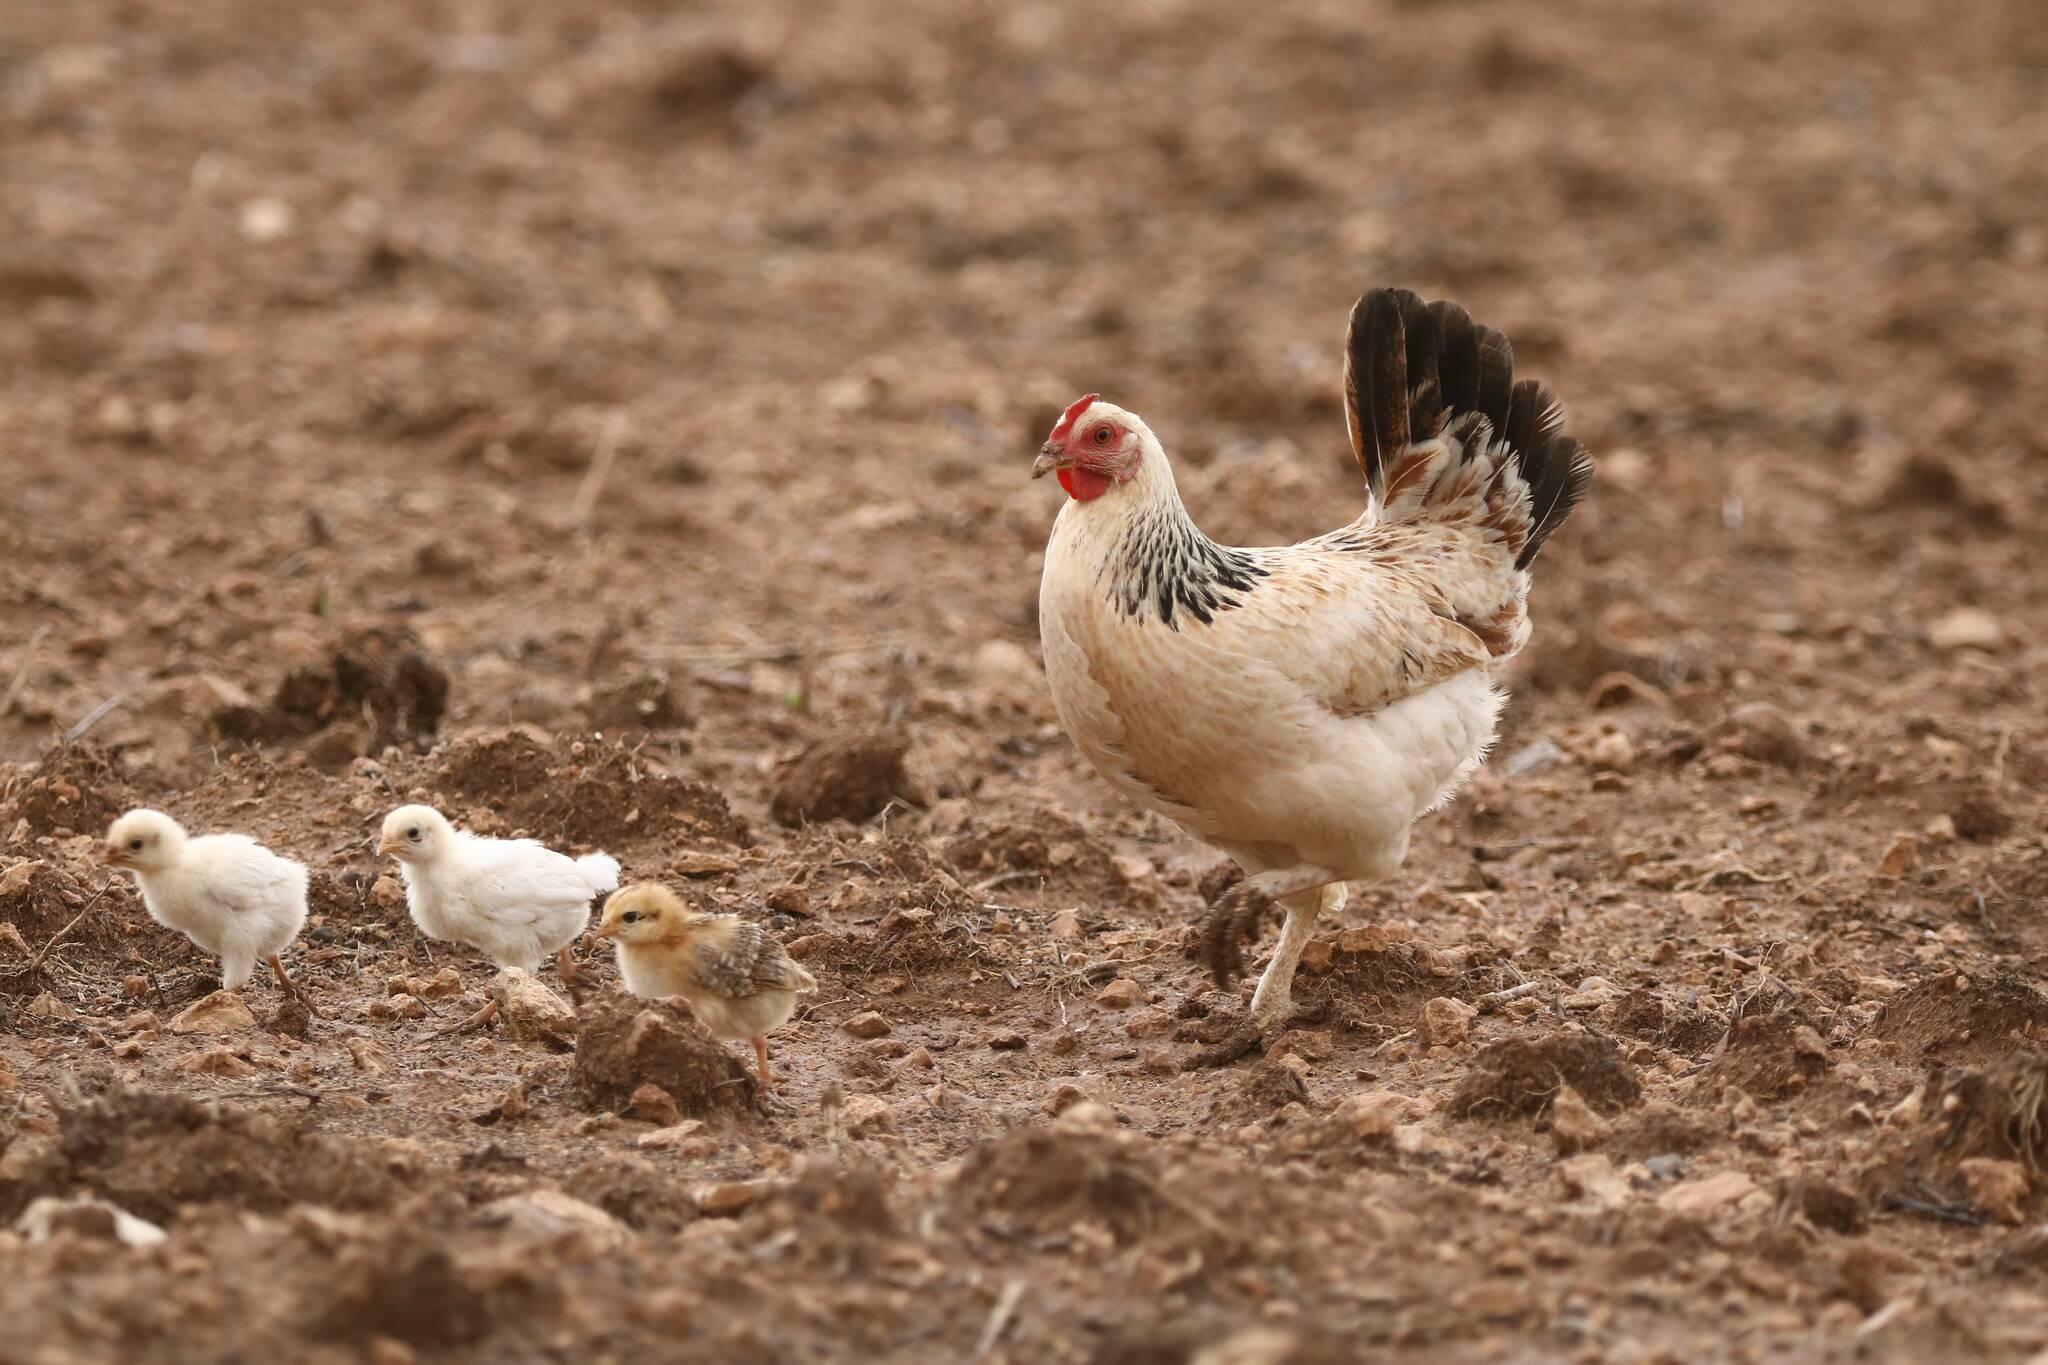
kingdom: Animalia
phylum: Chordata
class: Aves
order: Galliformes
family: Phasianidae
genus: Gallus
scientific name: Gallus gallus
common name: Red junglefowl
